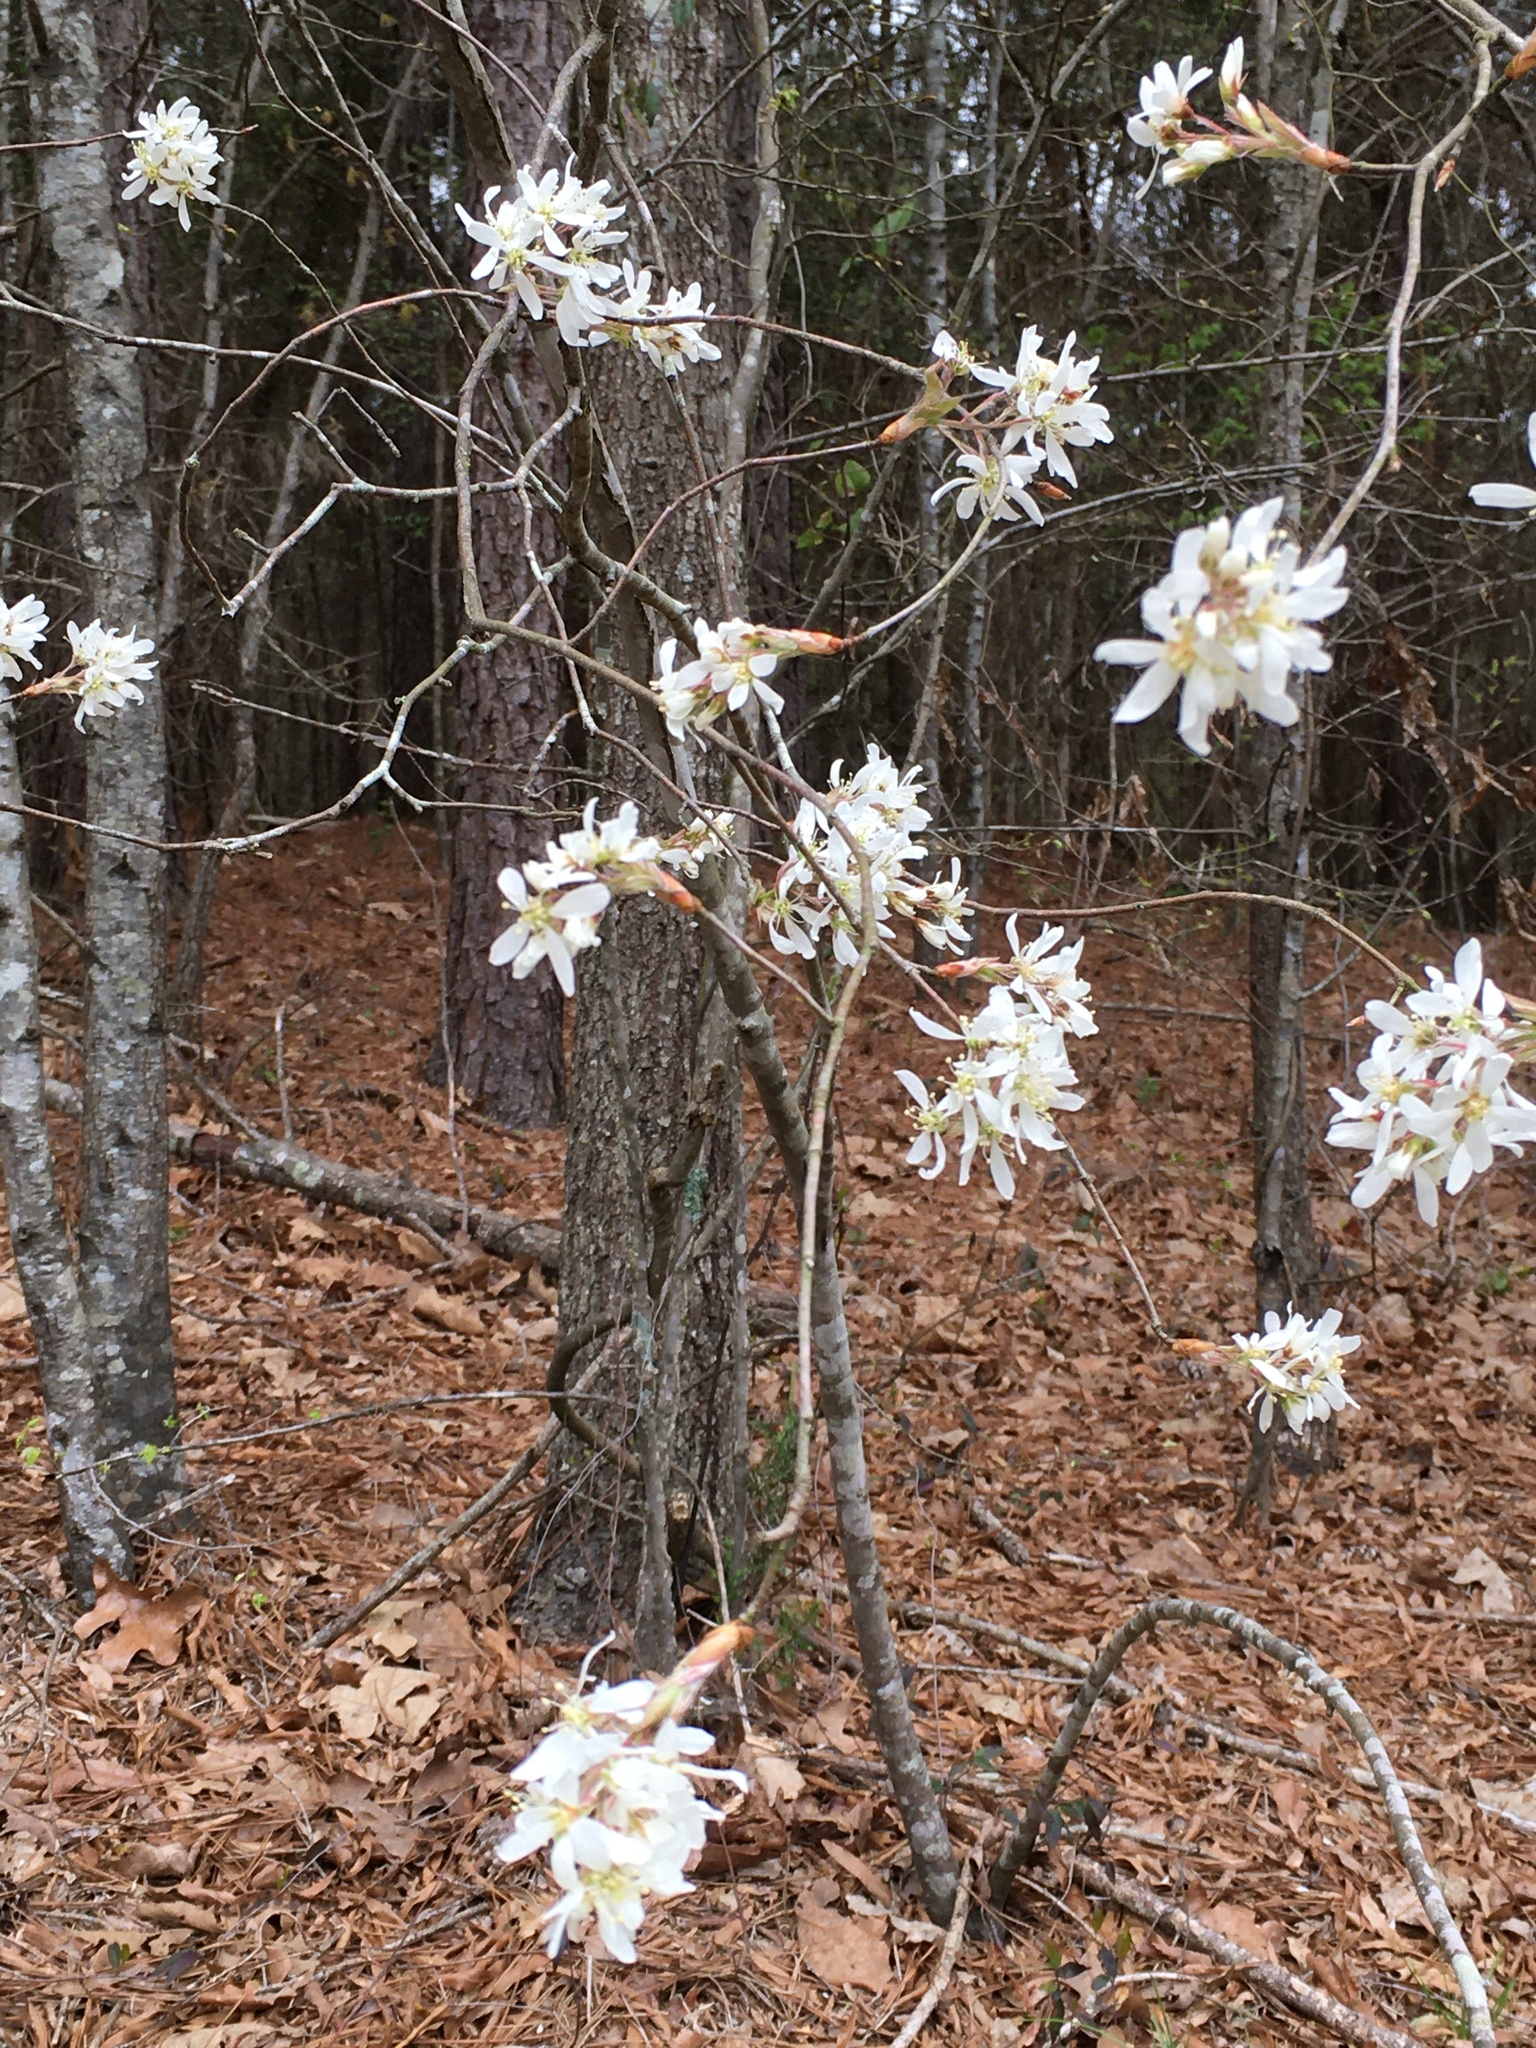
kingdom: Plantae
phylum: Tracheophyta
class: Magnoliopsida
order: Rosales
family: Rosaceae
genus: Amelanchier
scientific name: Amelanchier arborea
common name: Downy serviceberry
